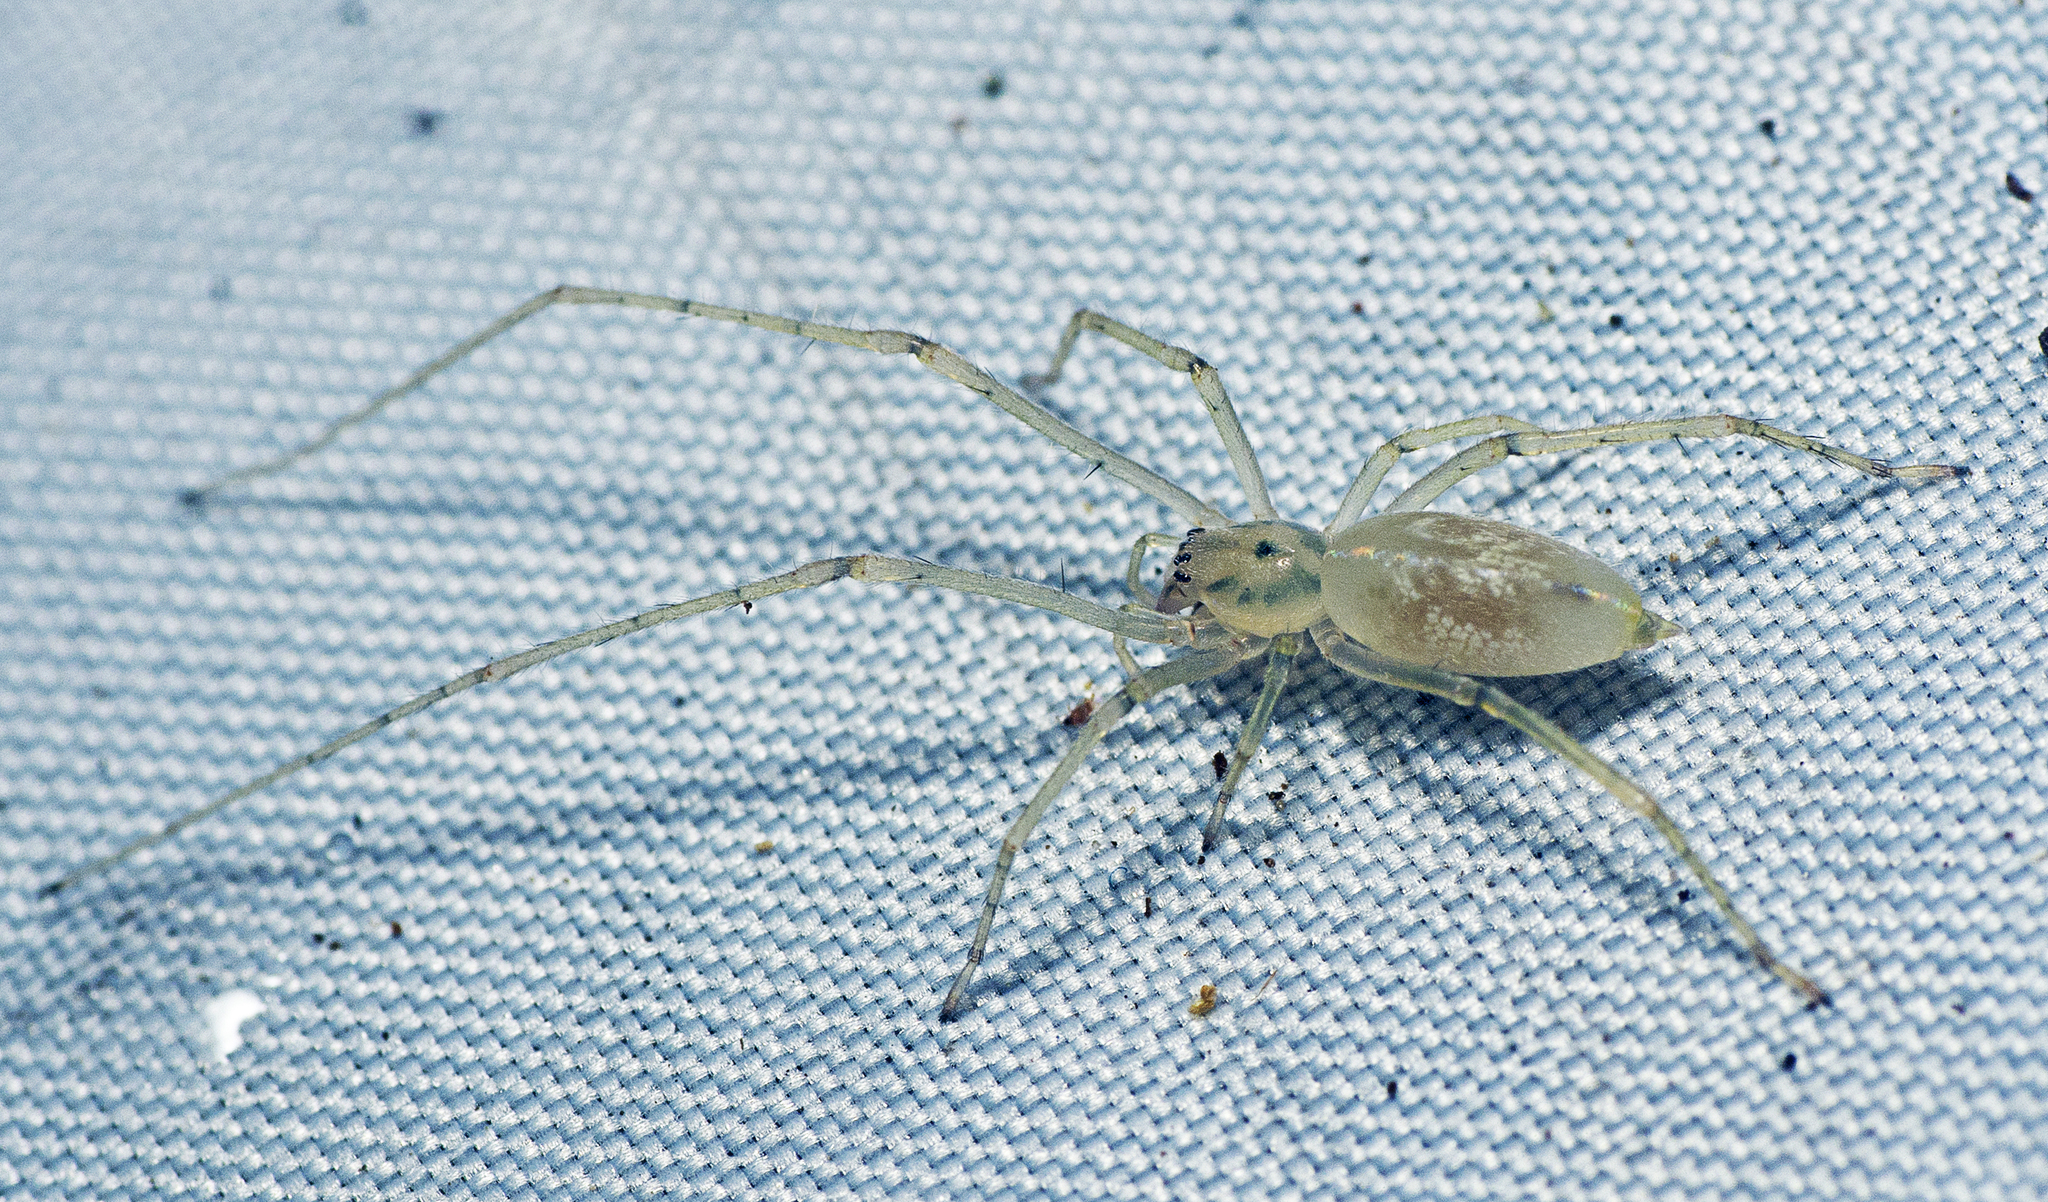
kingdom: Animalia
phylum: Arthropoda
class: Arachnida
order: Araneae
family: Cheiracanthiidae
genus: Calamoneta
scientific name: Calamoneta
